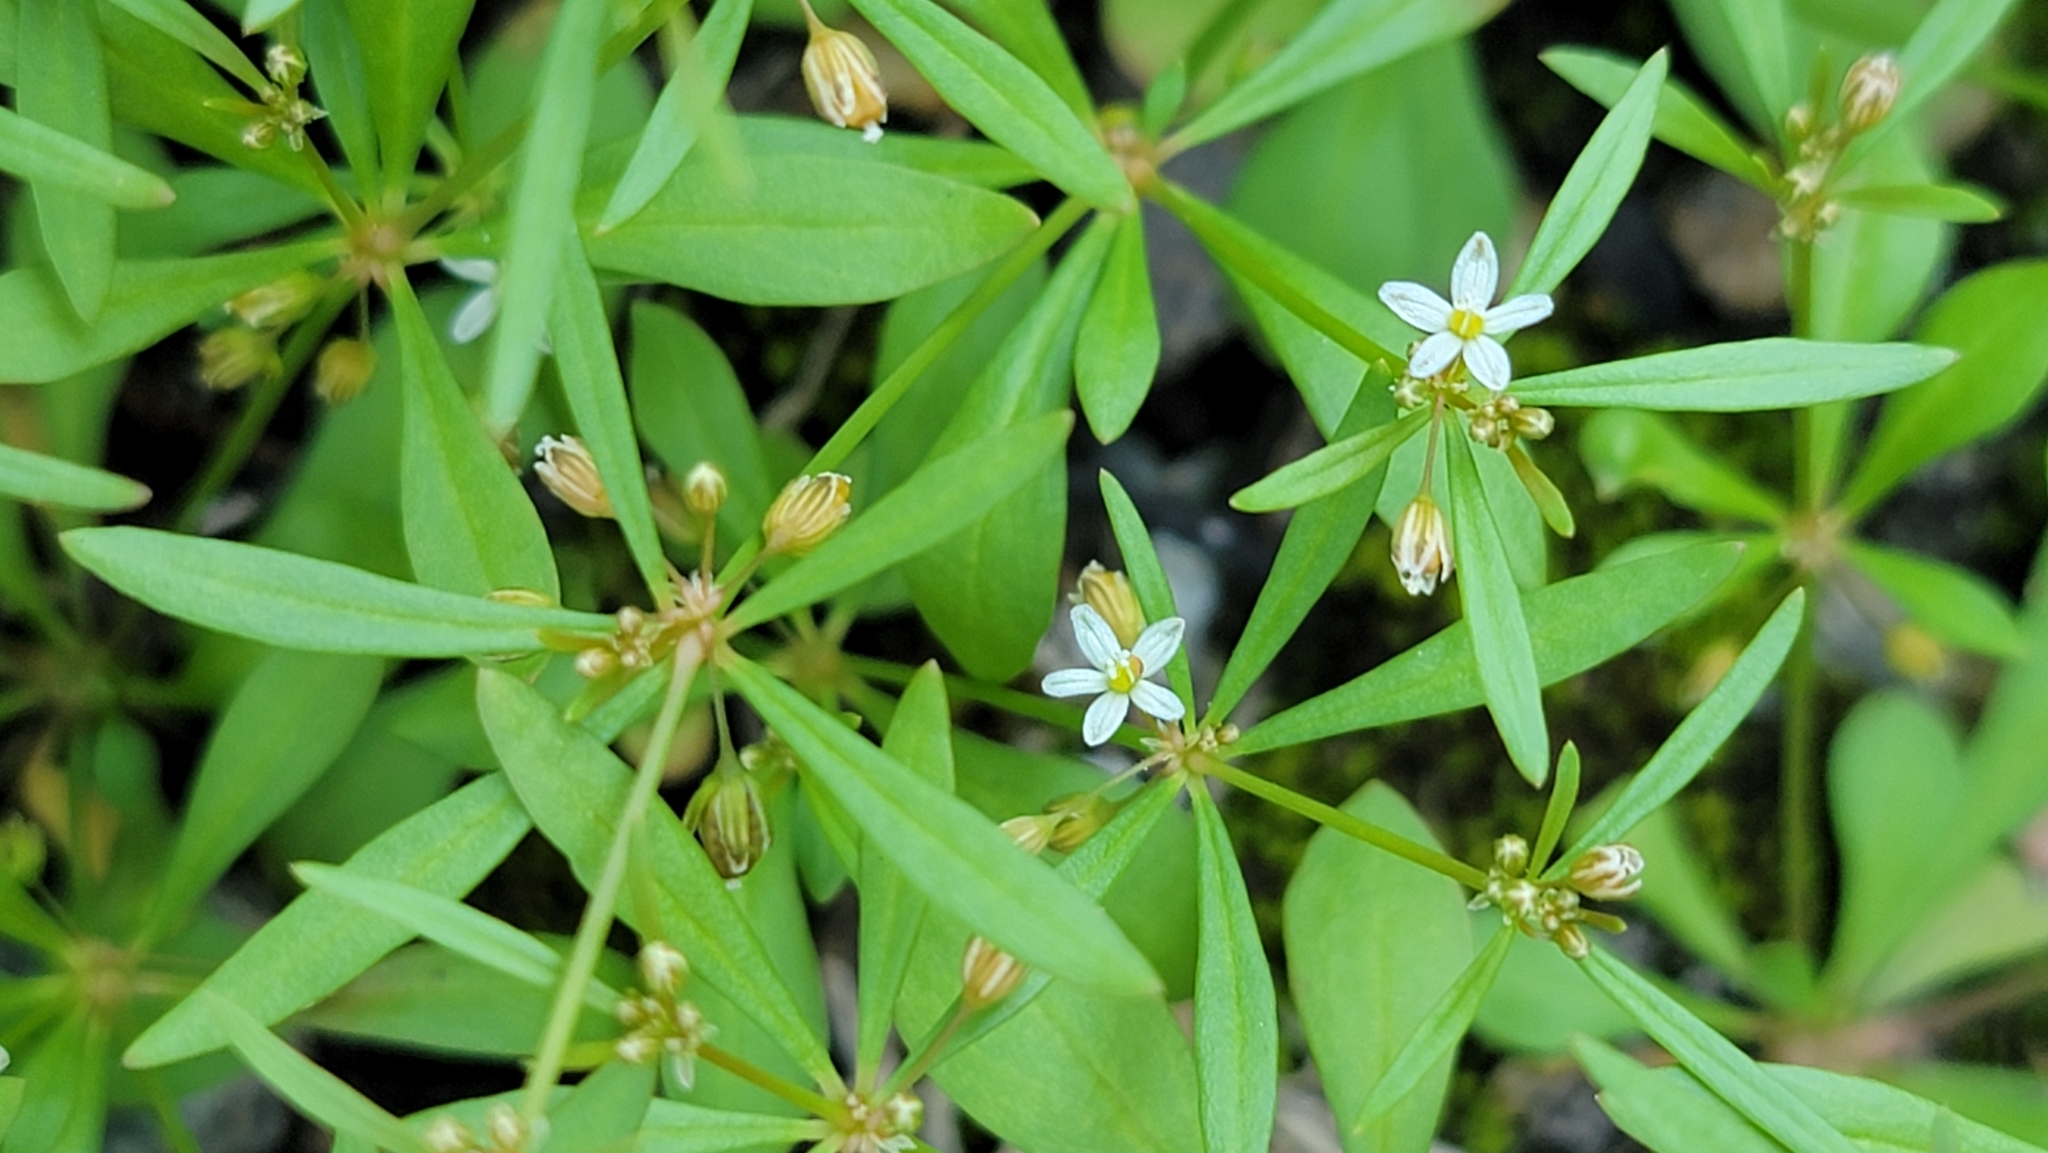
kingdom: Plantae
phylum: Tracheophyta
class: Magnoliopsida
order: Caryophyllales
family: Molluginaceae
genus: Mollugo
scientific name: Mollugo verticillata
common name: Green carpetweed
